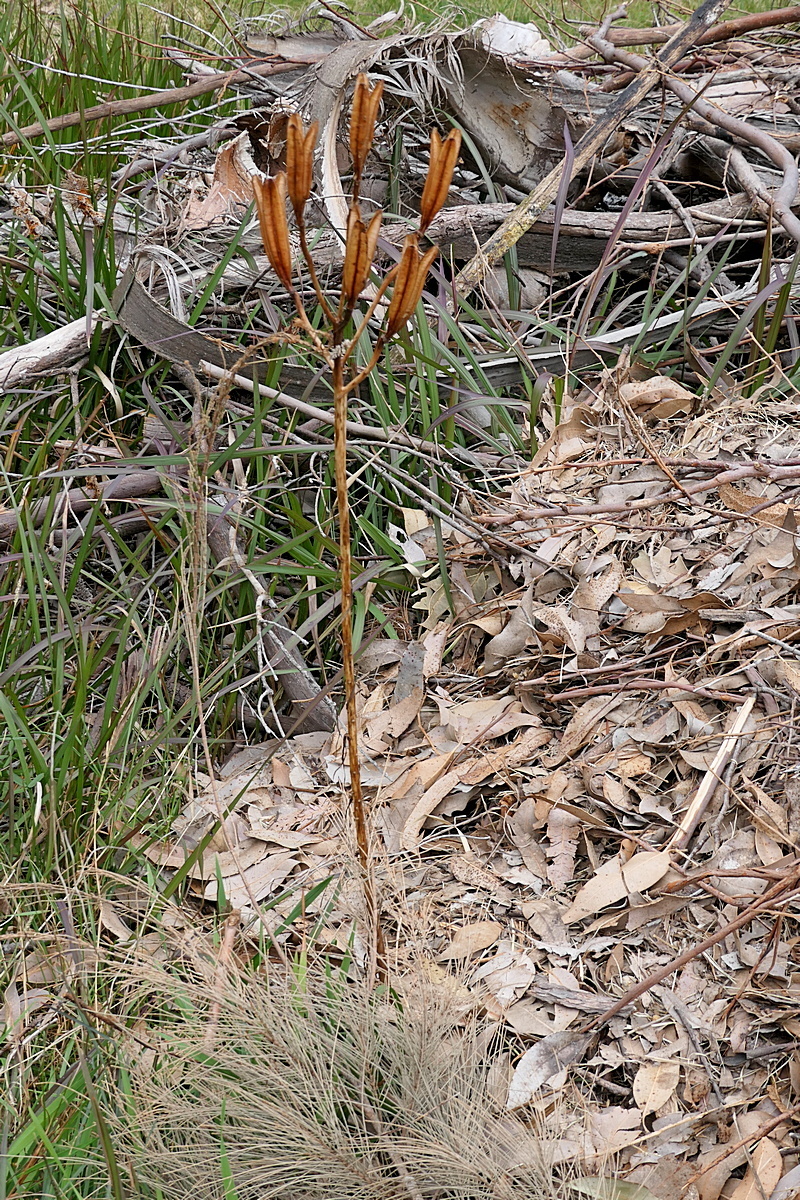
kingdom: Plantae
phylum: Tracheophyta
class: Liliopsida
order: Liliales
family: Liliaceae
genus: Lilium
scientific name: Lilium formosanum
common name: Formosa lily
